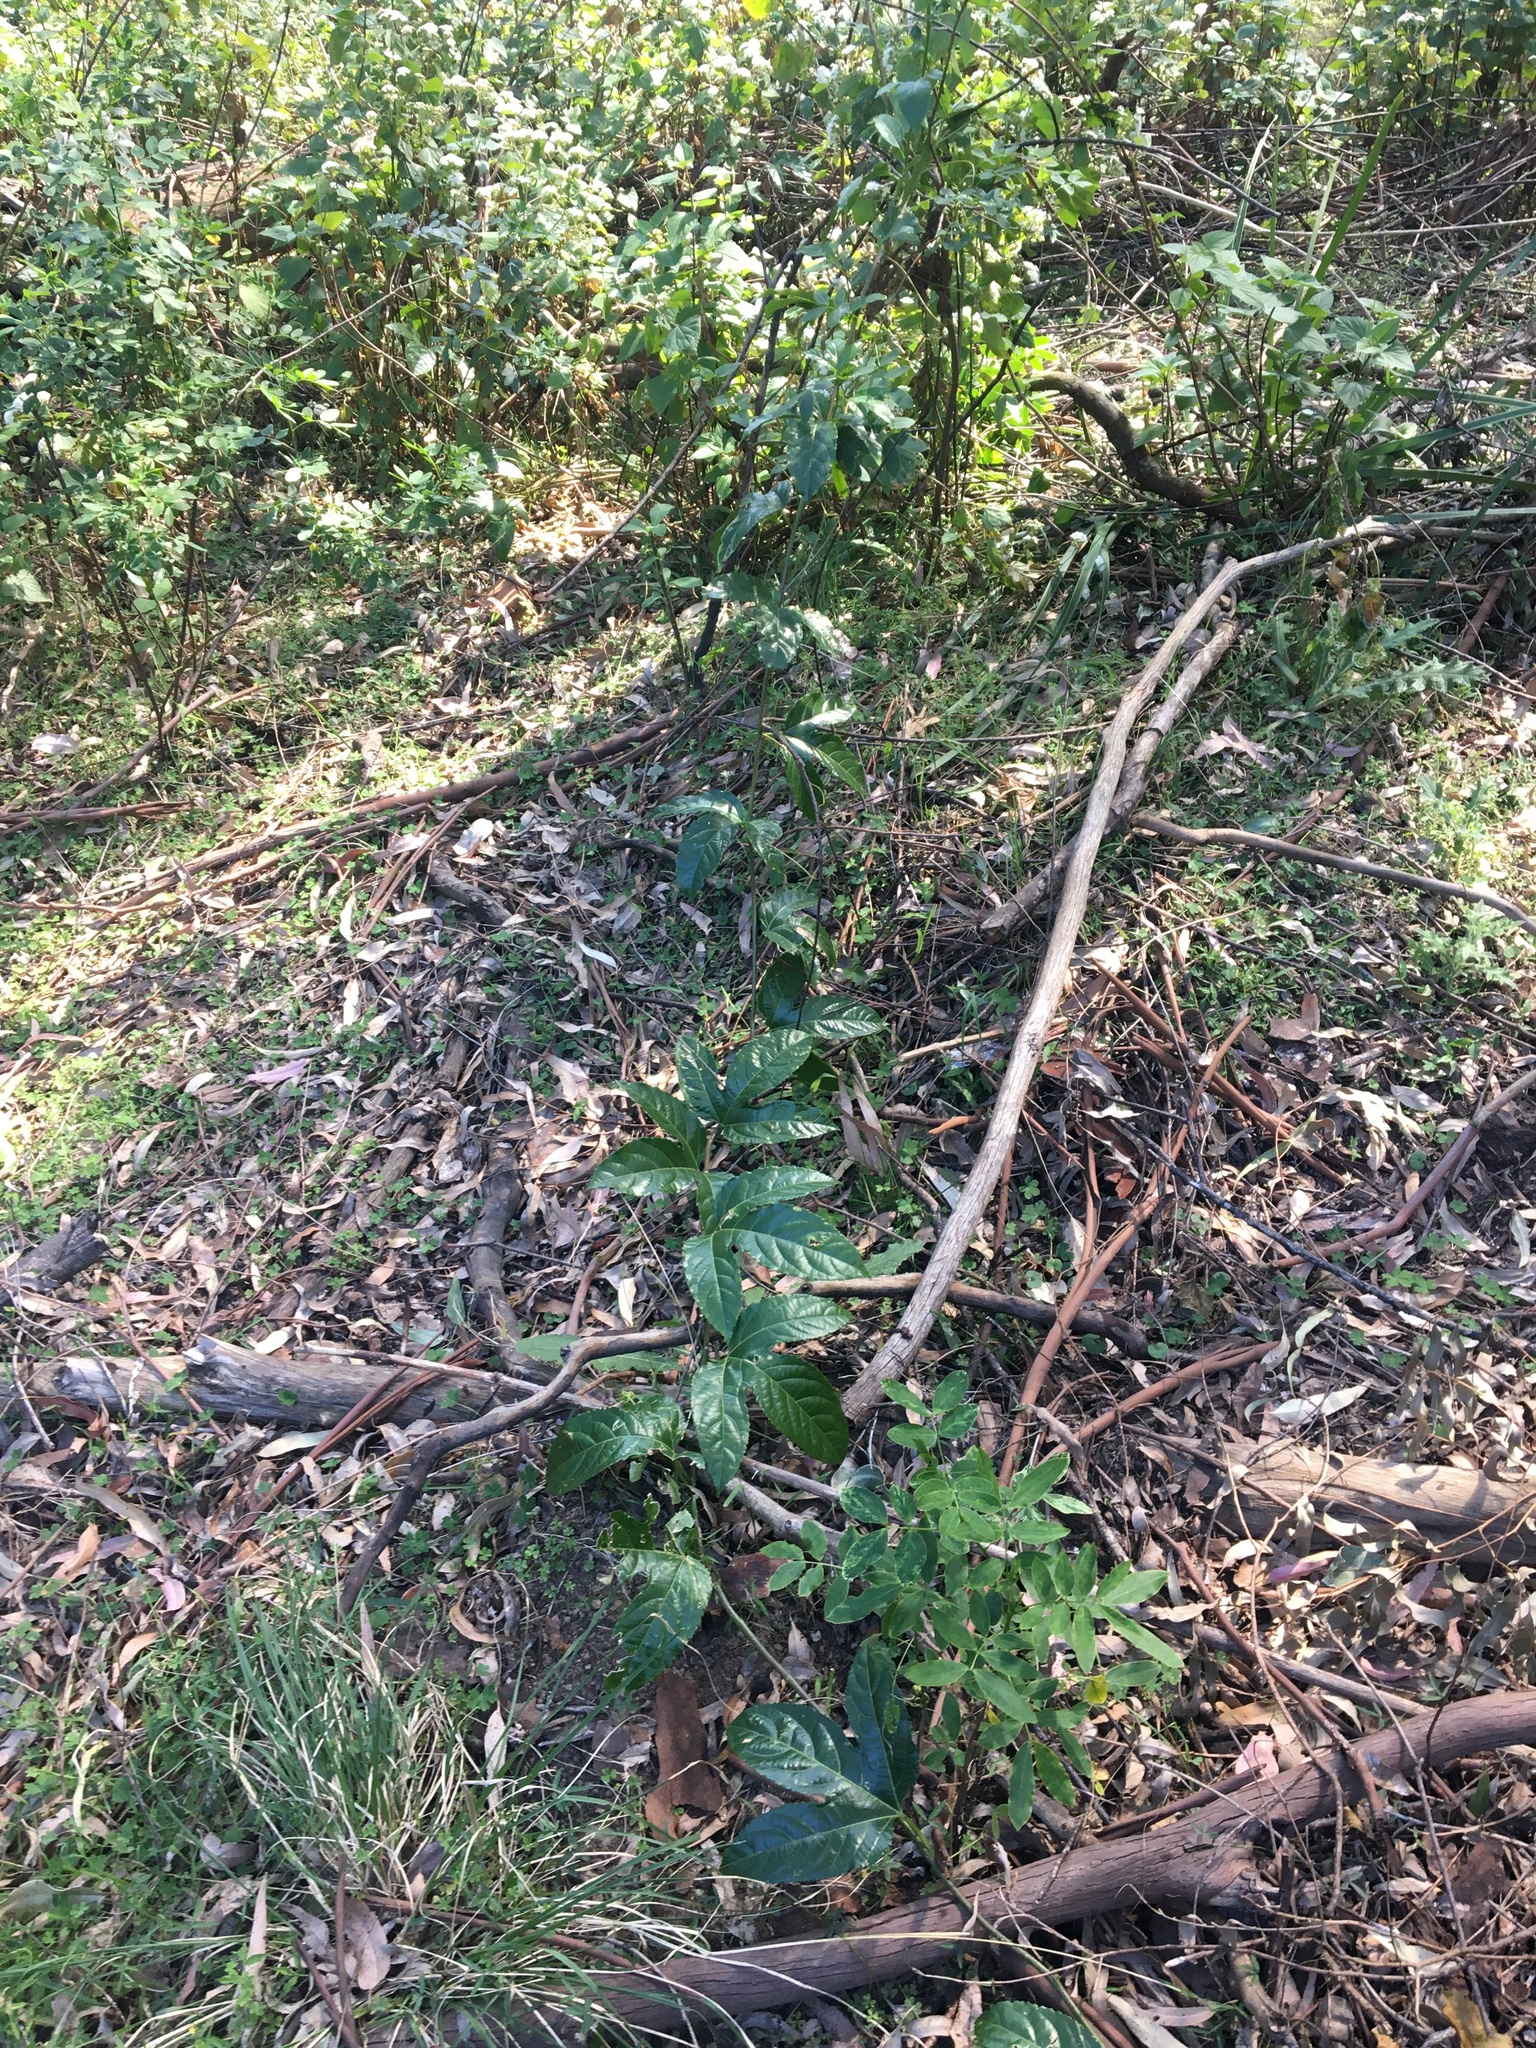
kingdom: Plantae
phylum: Tracheophyta
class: Magnoliopsida
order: Malpighiales
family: Passifloraceae
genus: Passiflora
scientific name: Passiflora edulis
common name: Purple granadilla
